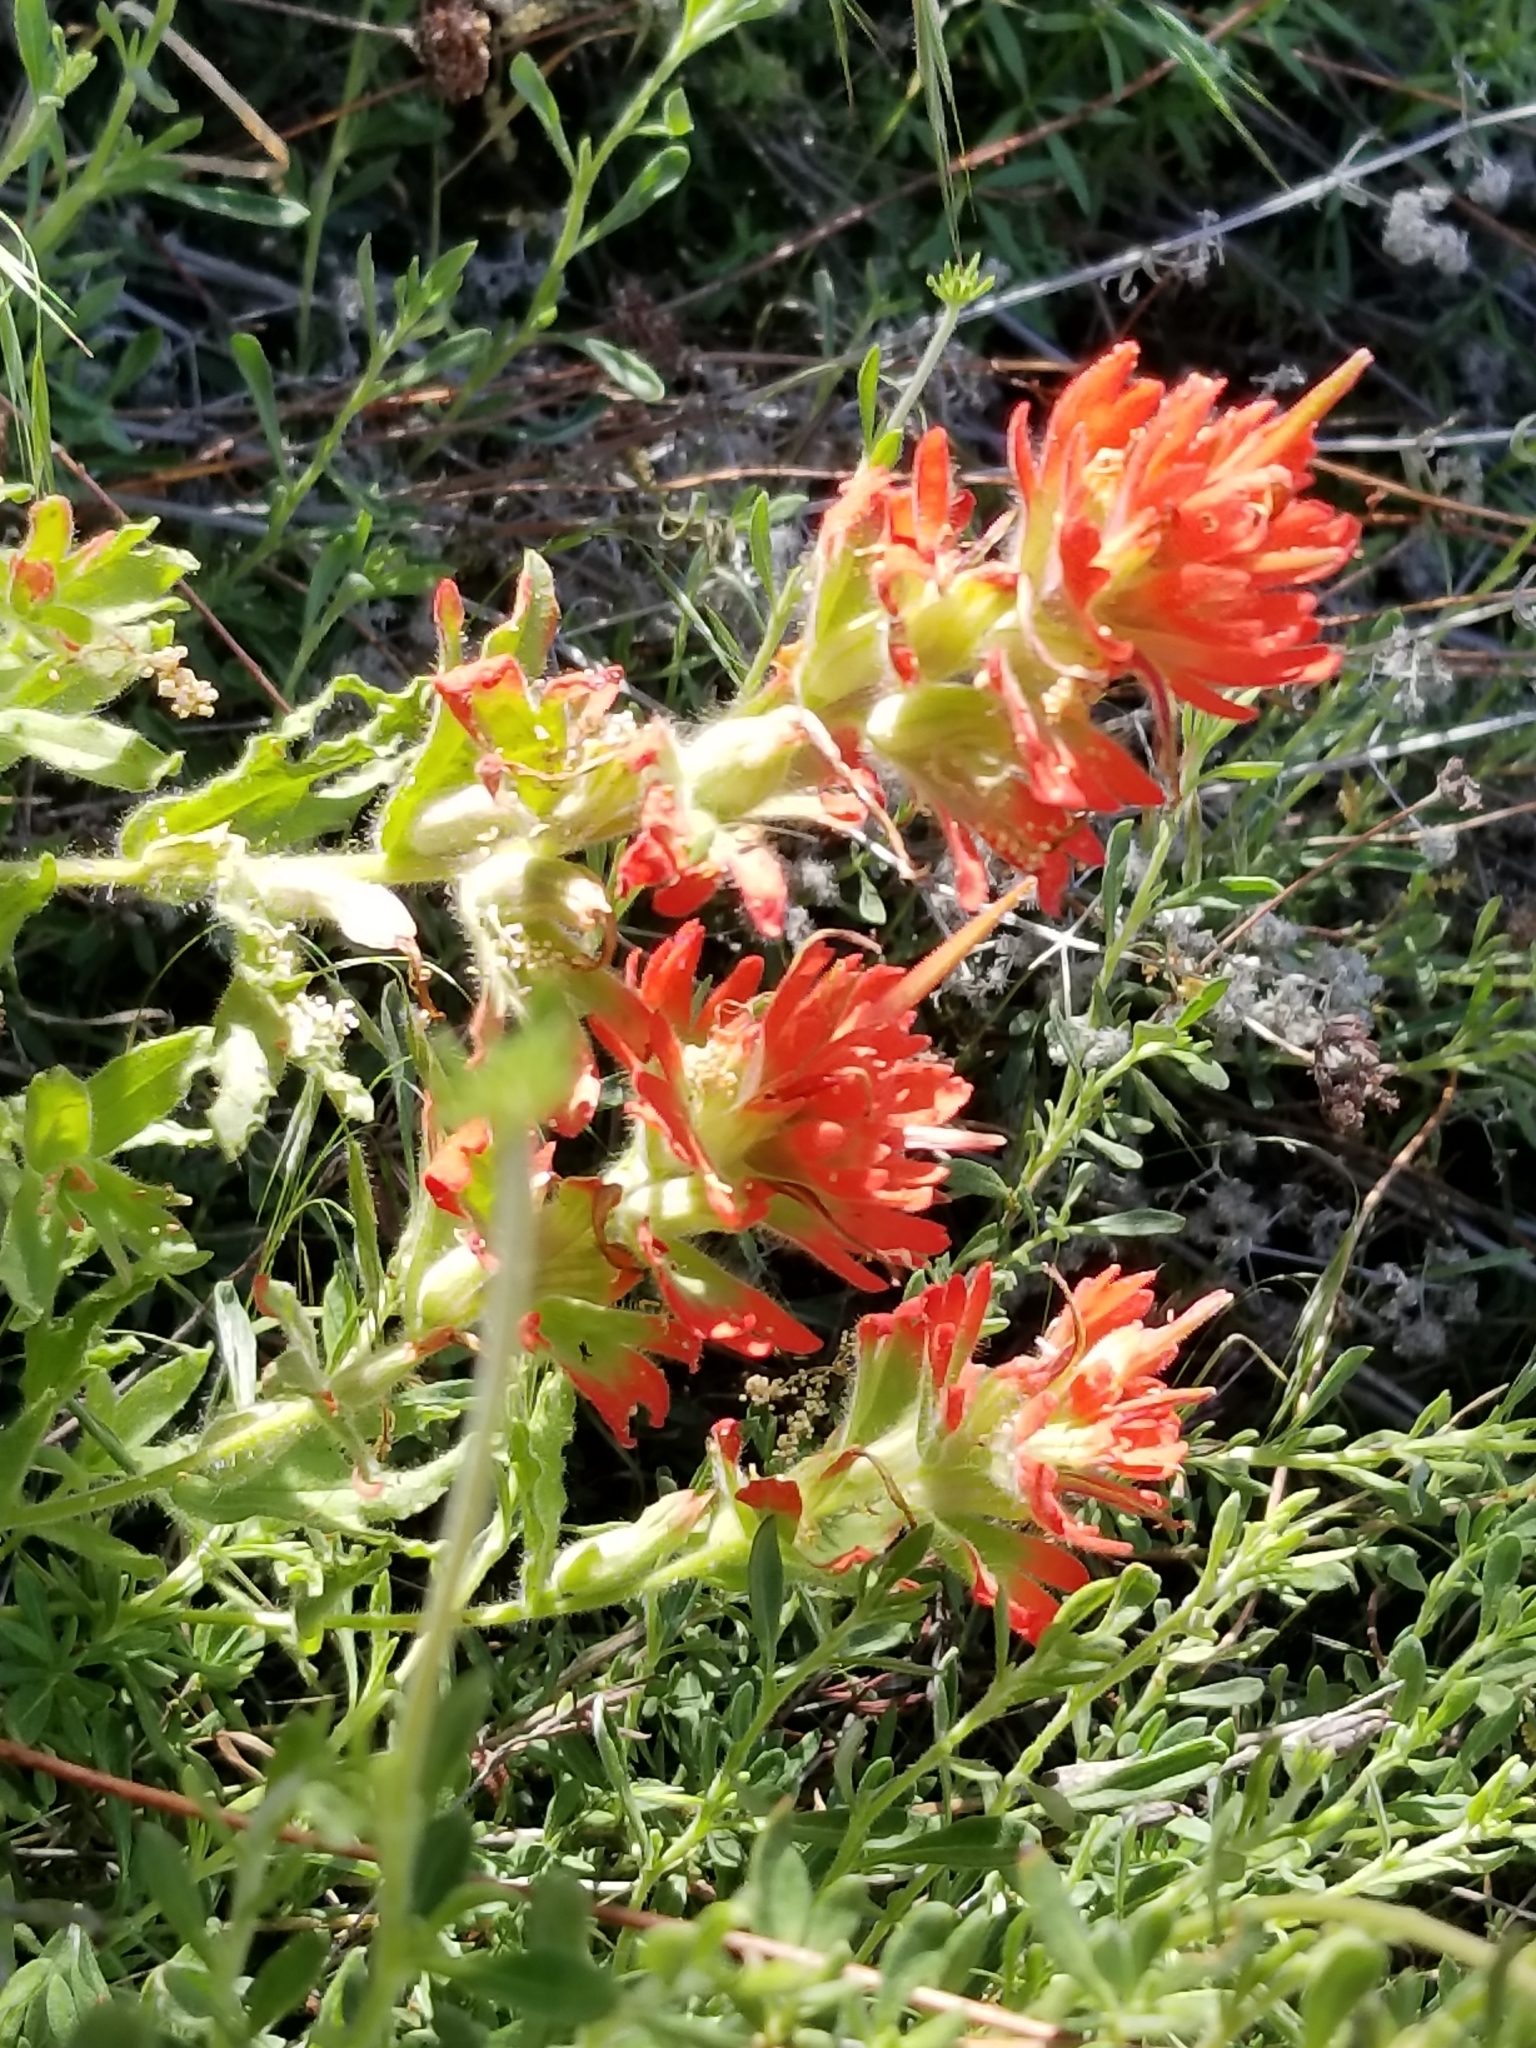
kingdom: Plantae
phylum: Tracheophyta
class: Magnoliopsida
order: Lamiales
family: Orobanchaceae
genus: Castilleja
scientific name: Castilleja martini
